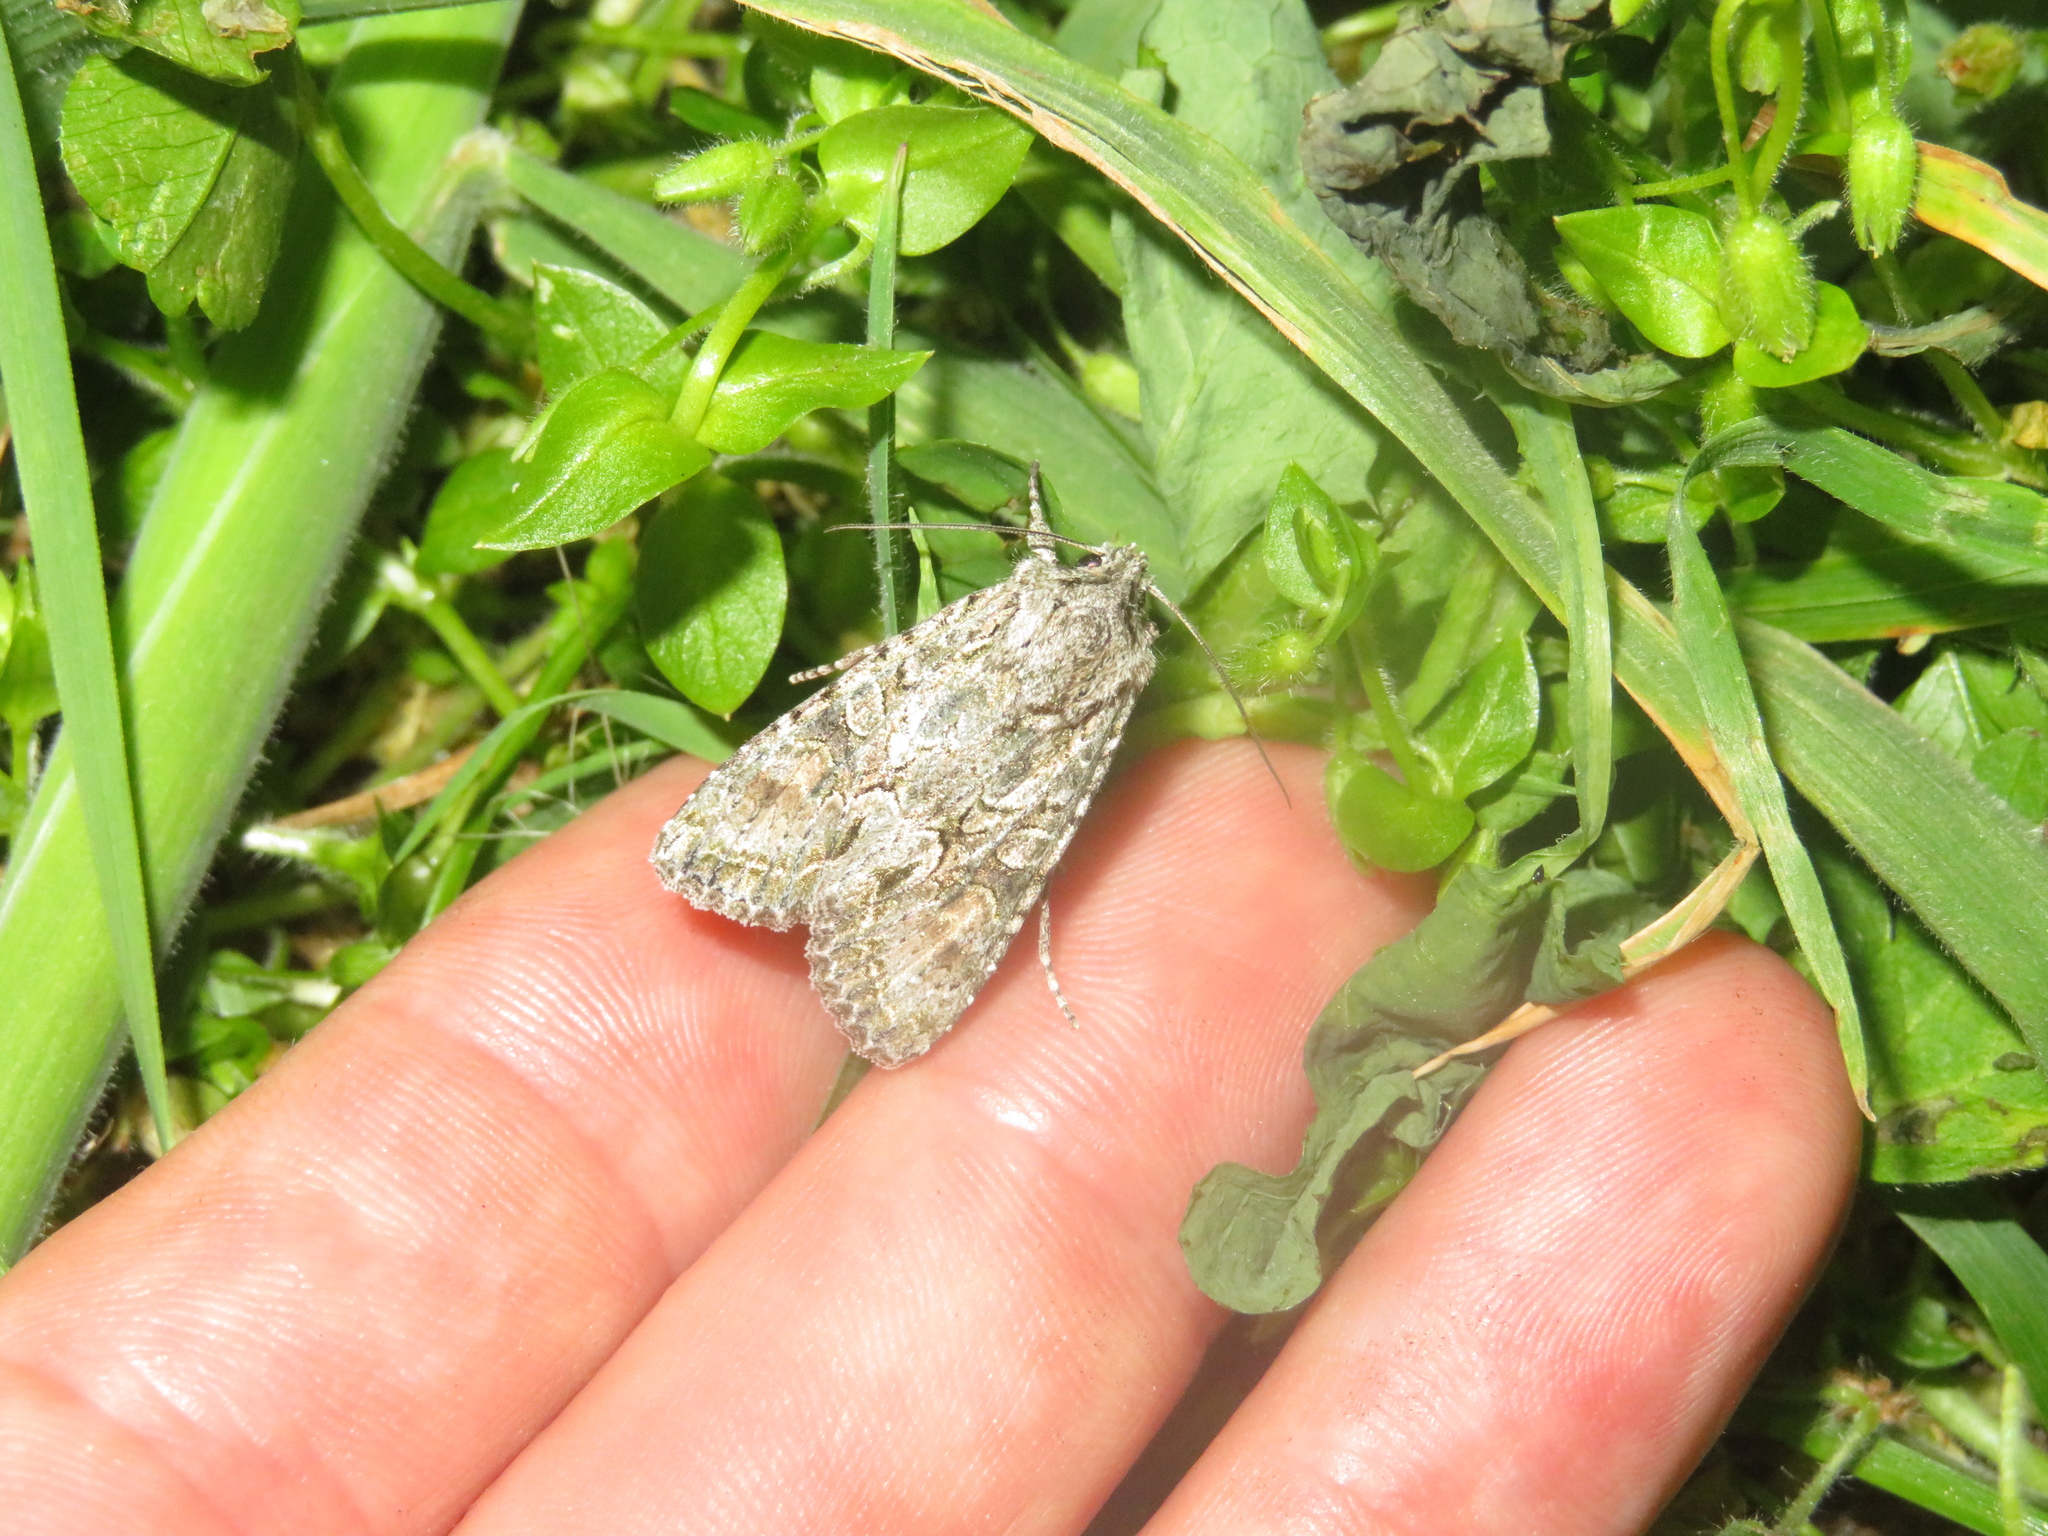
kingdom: Animalia
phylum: Arthropoda
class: Insecta
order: Lepidoptera
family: Noctuidae
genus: Ichneutica
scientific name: Ichneutica mutans
